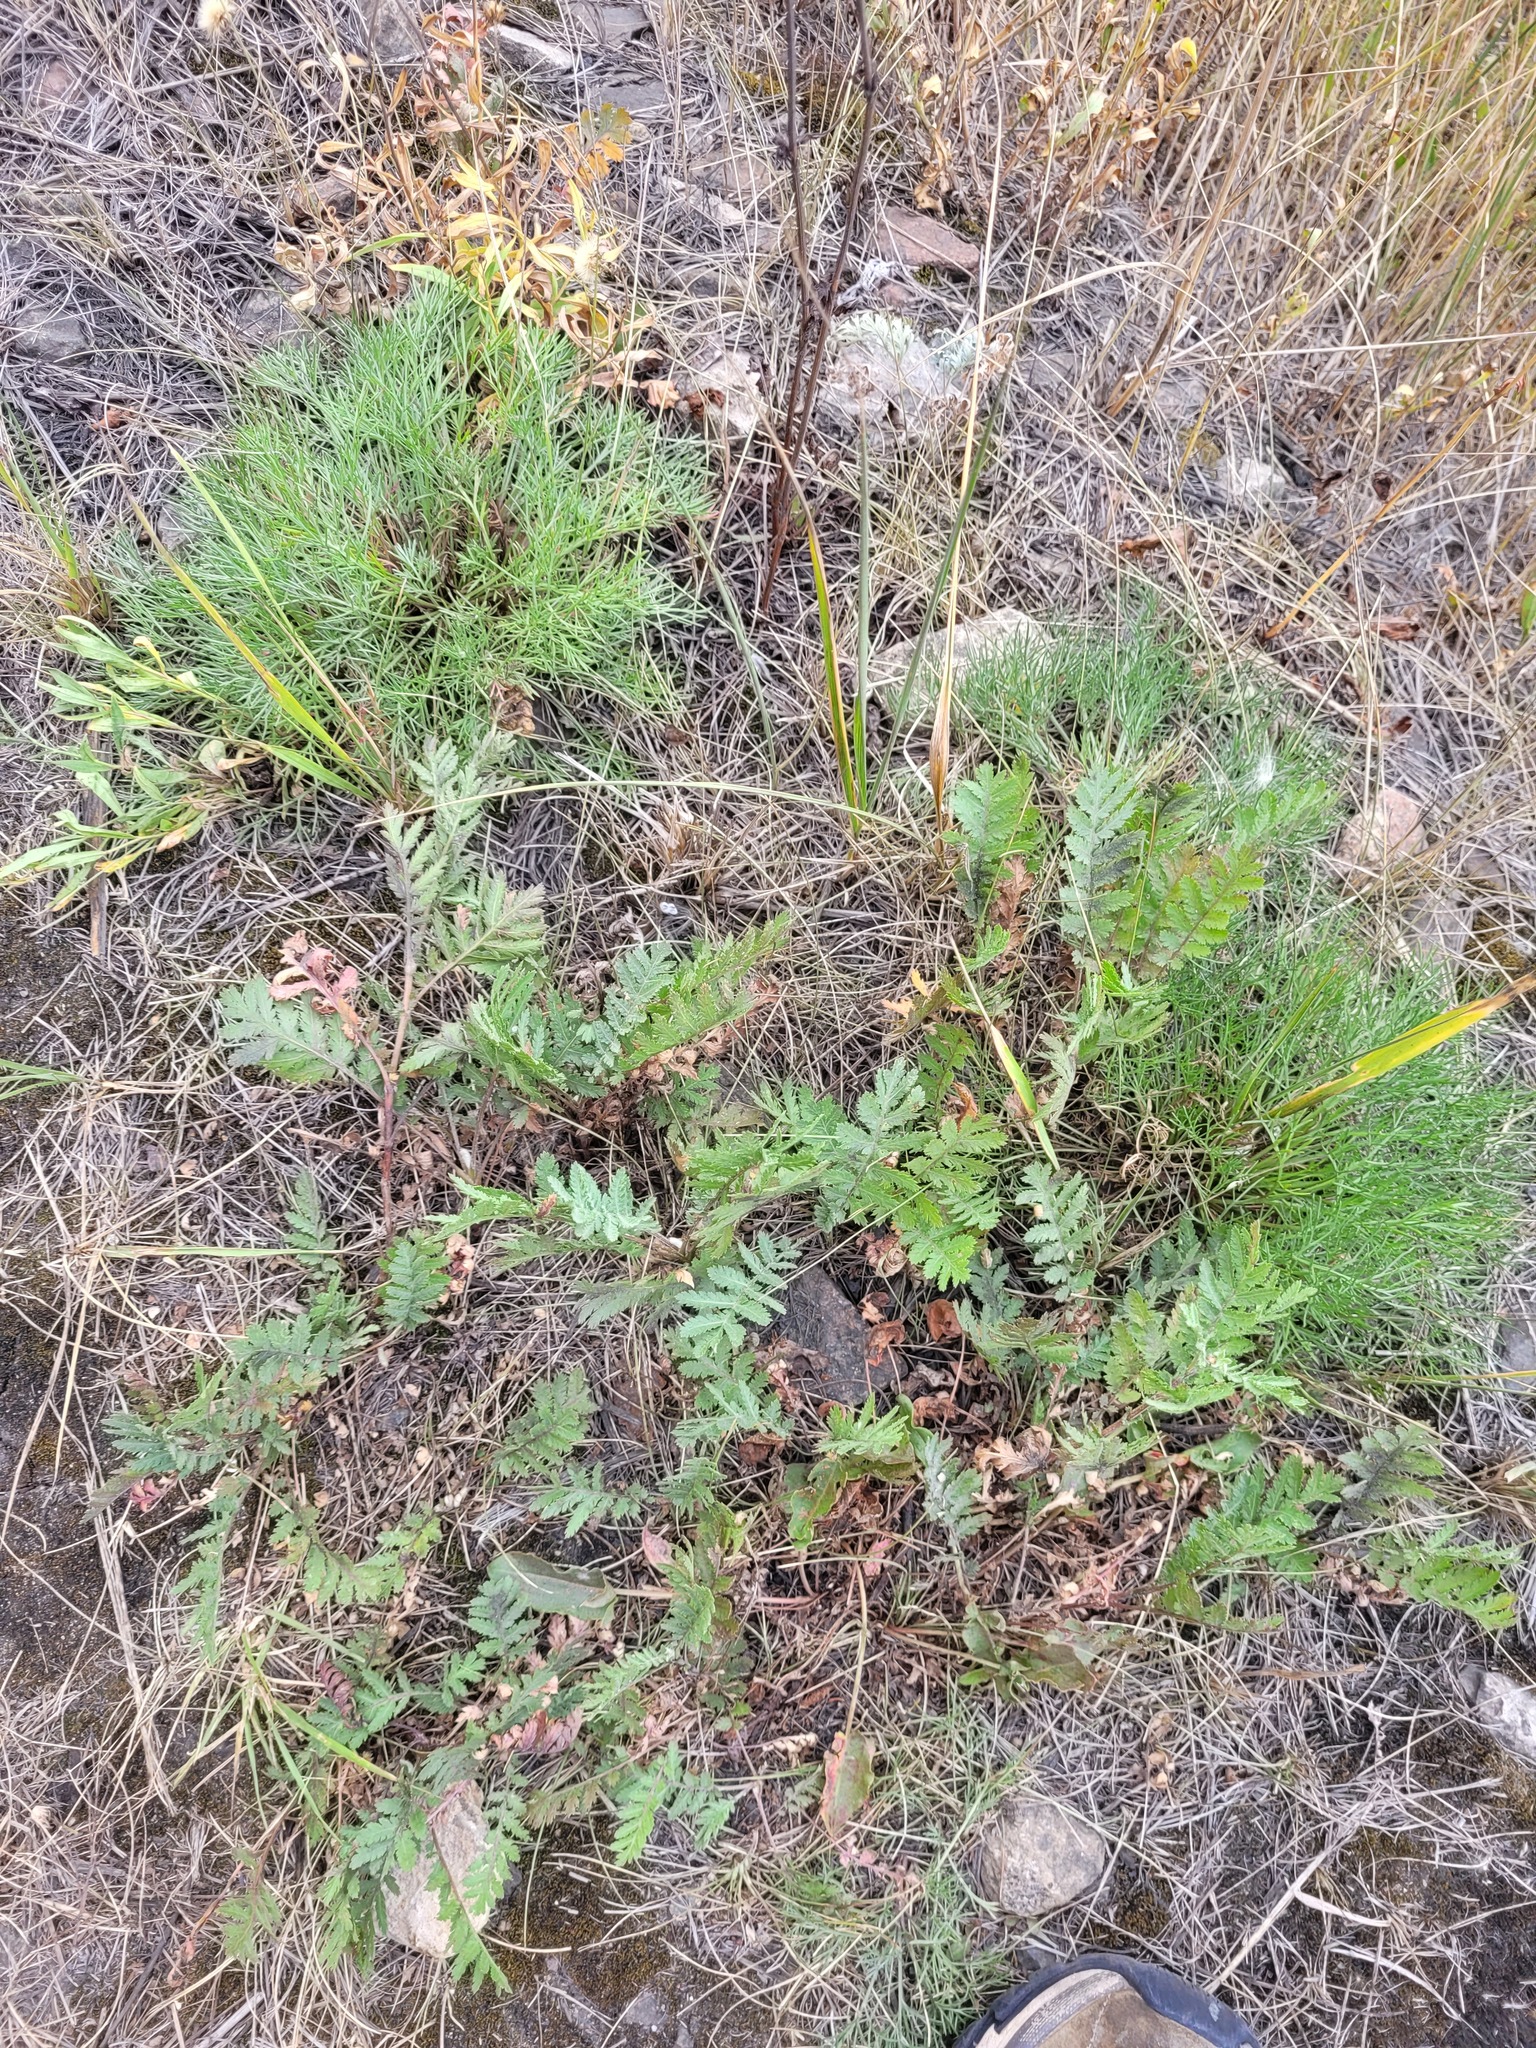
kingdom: Plantae
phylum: Tracheophyta
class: Magnoliopsida
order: Asterales
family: Asteraceae
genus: Tanacetum
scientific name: Tanacetum vulgare
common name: Common tansy
